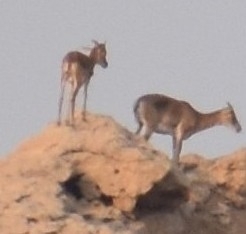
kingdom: Animalia
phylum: Chordata
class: Mammalia
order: Artiodactyla
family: Bovidae
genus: Hemitragus
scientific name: Hemitragus jayakari
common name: Arabian tahr
